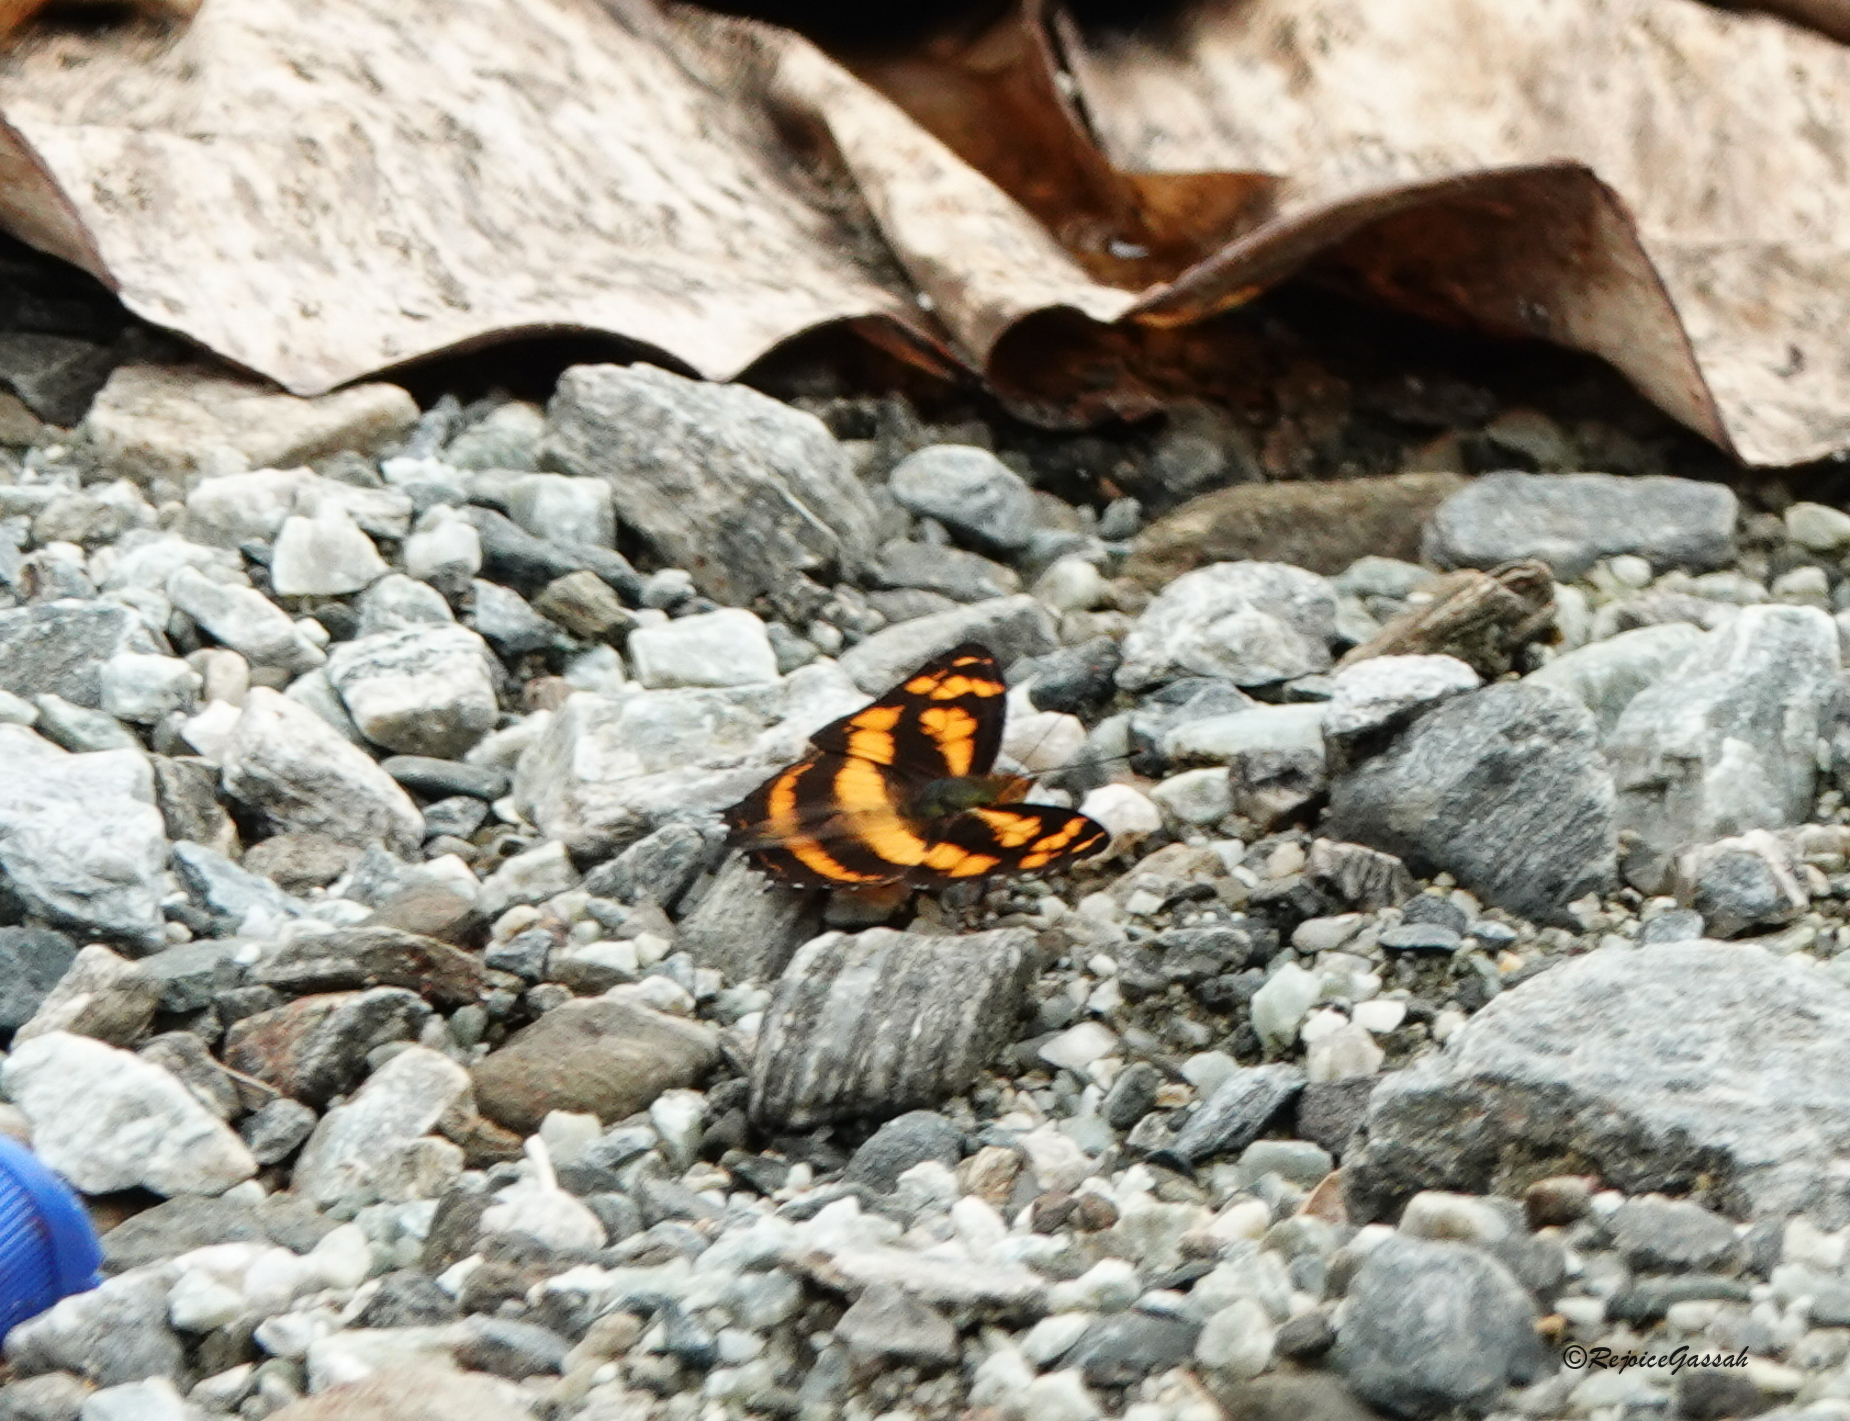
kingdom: Animalia
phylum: Arthropoda
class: Insecta
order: Lepidoptera
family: Nymphalidae
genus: Symbrenthia
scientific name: Symbrenthia hypselis
